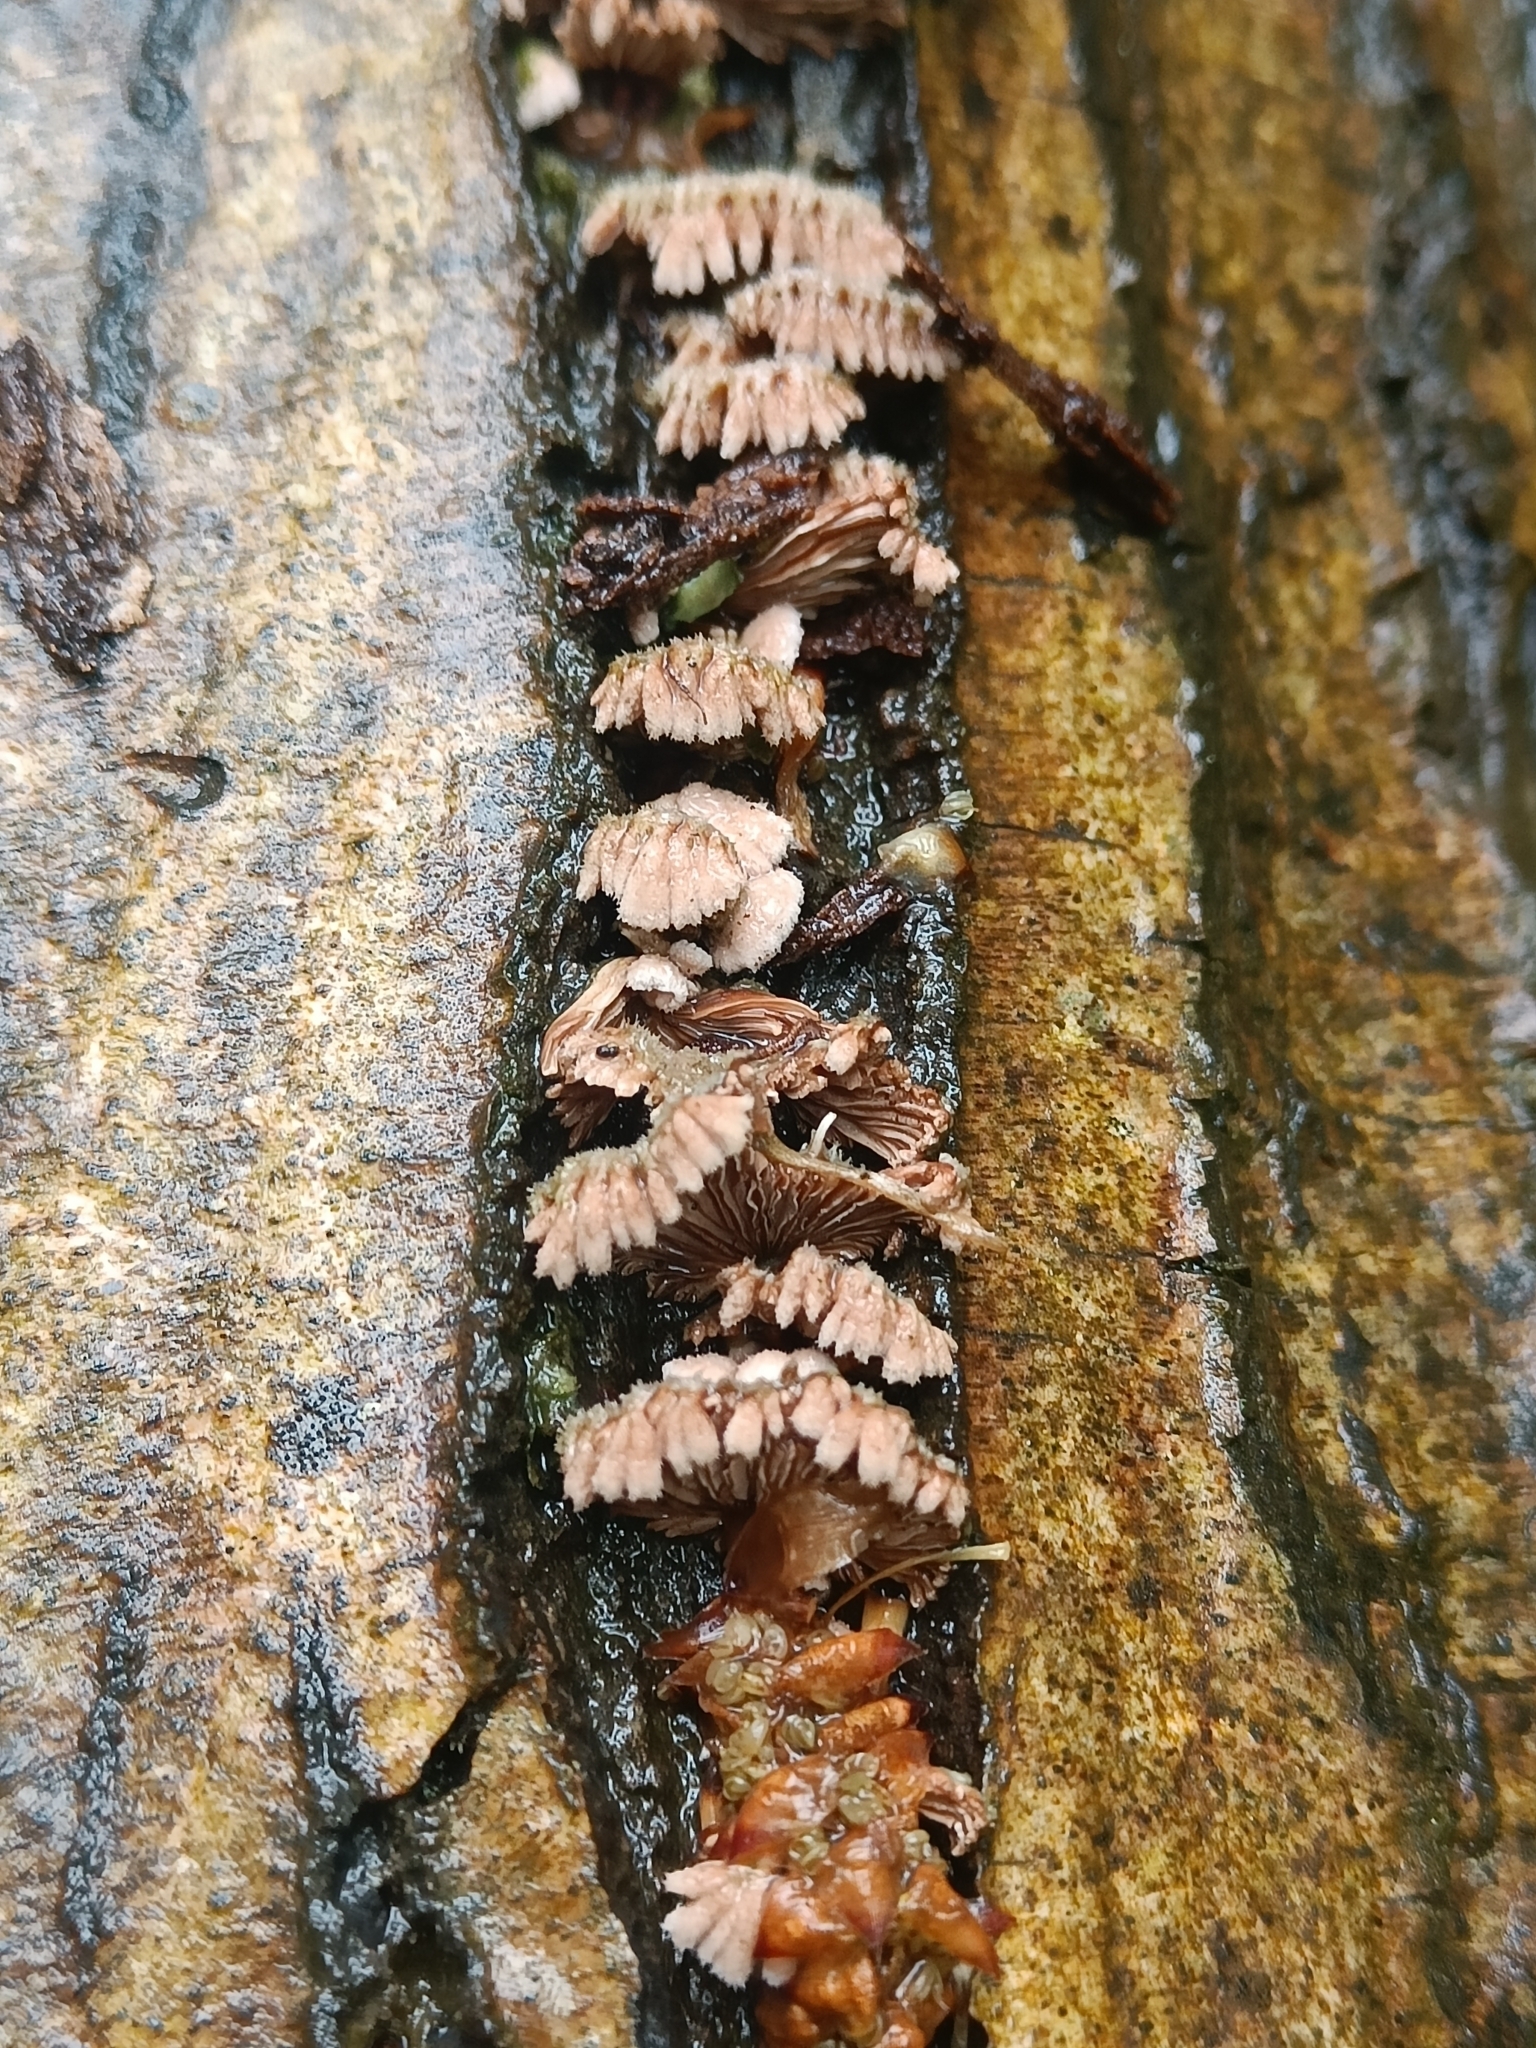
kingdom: Fungi
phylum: Basidiomycota
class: Agaricomycetes
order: Agaricales
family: Schizophyllaceae
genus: Schizophyllum
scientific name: Schizophyllum commune
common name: Common porecrust
